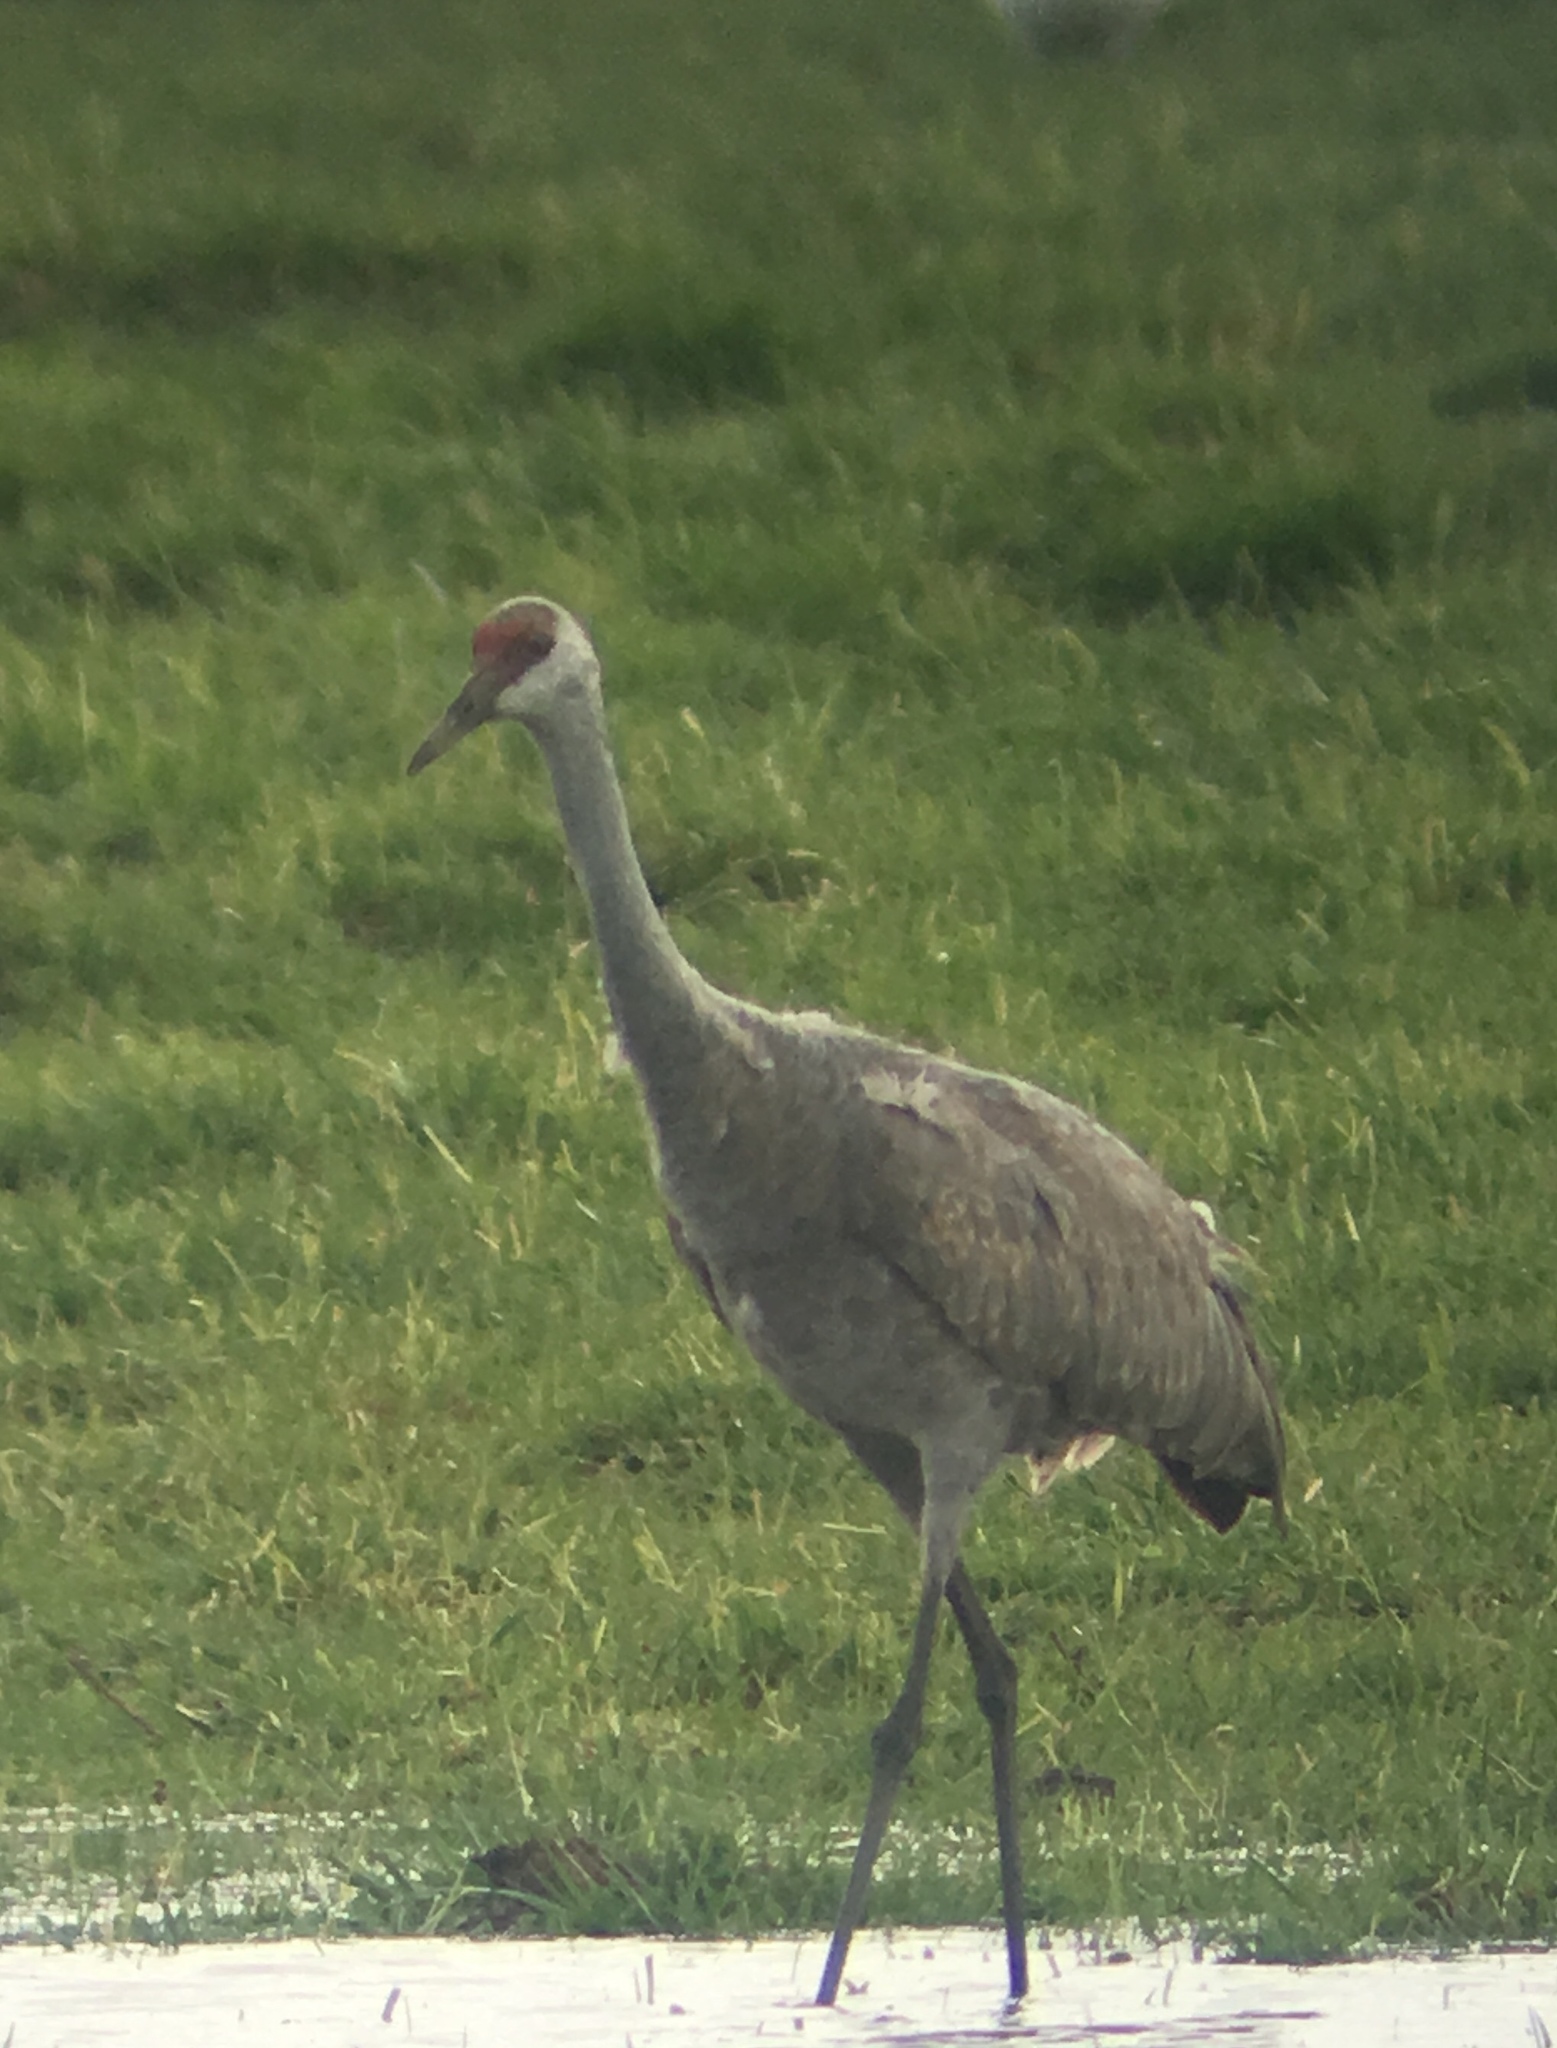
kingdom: Animalia
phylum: Chordata
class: Aves
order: Gruiformes
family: Gruidae
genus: Grus
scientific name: Grus canadensis
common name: Sandhill crane
